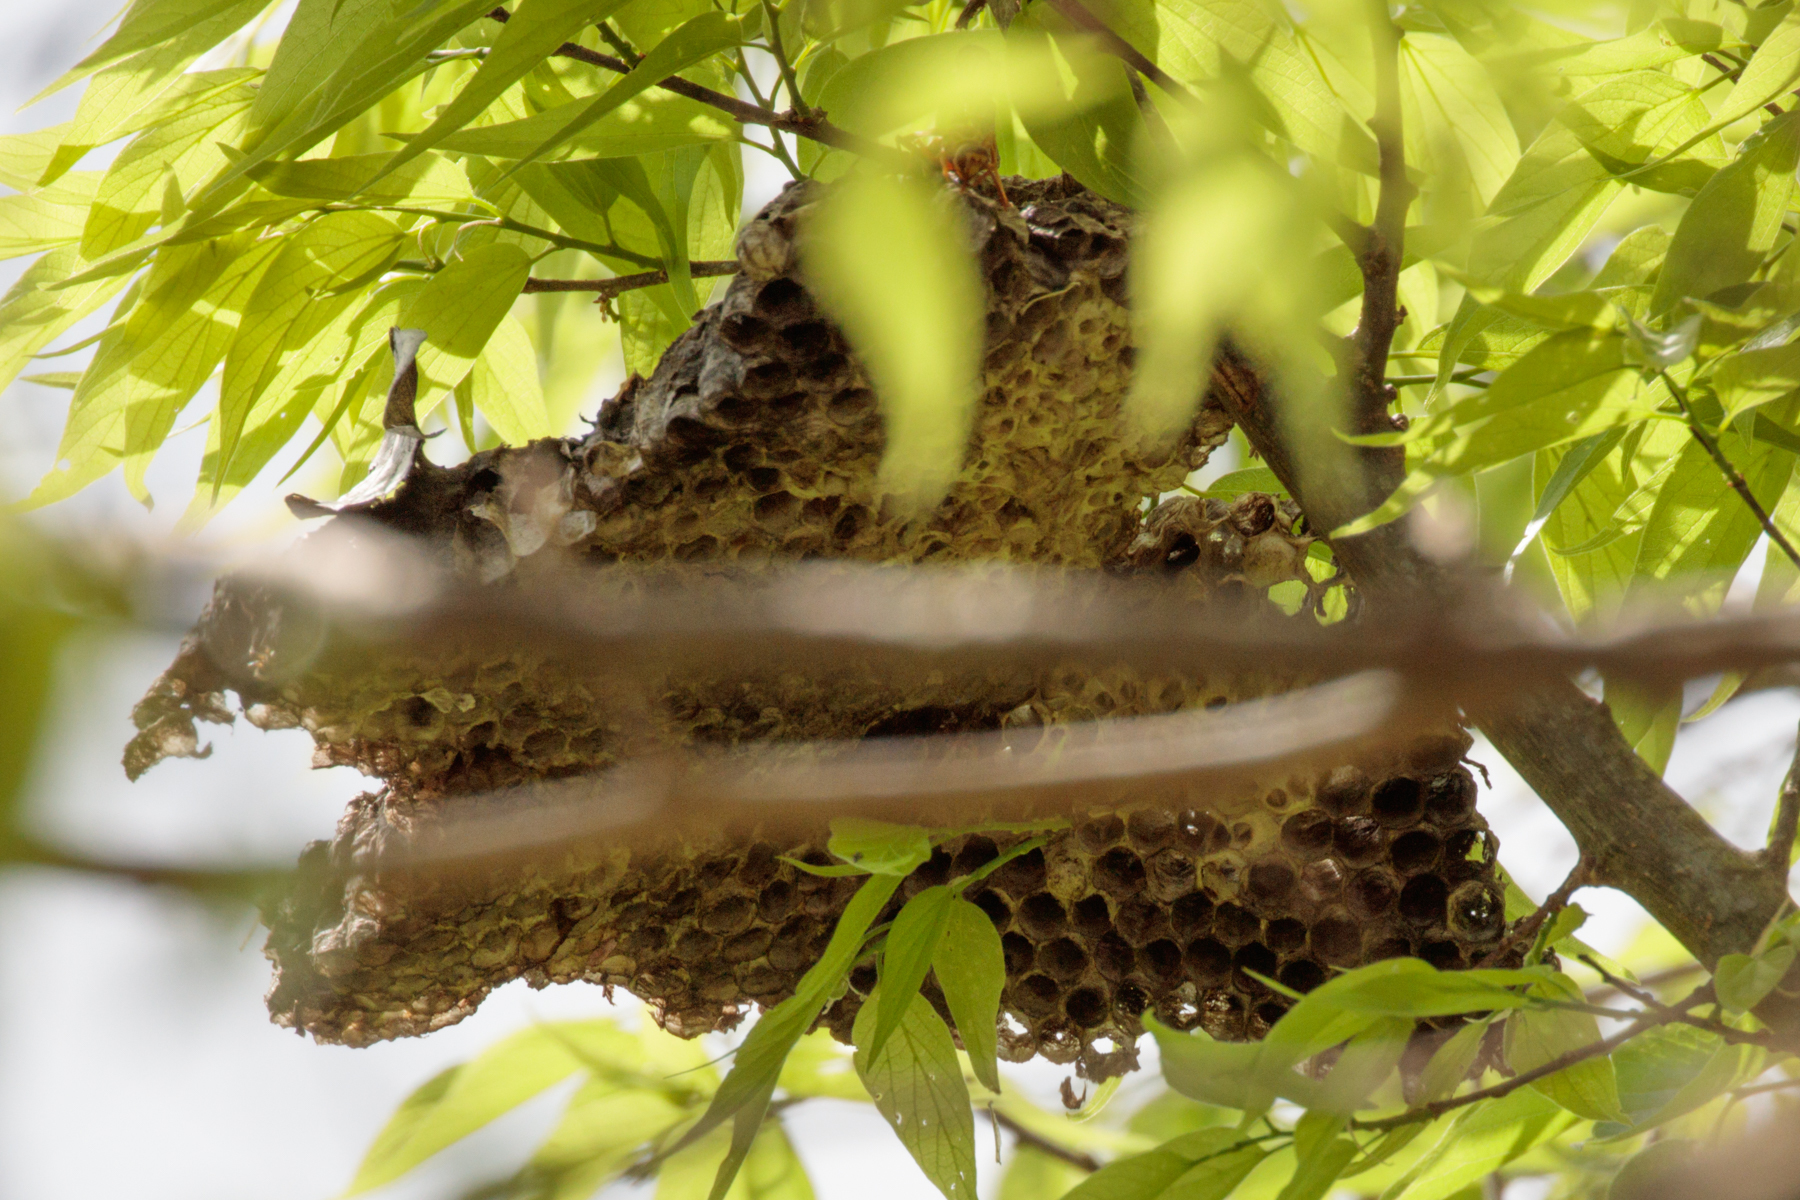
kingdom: Animalia
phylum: Arthropoda
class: Insecta
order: Hymenoptera
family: Eumenidae
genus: Polistes
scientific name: Polistes apachus
